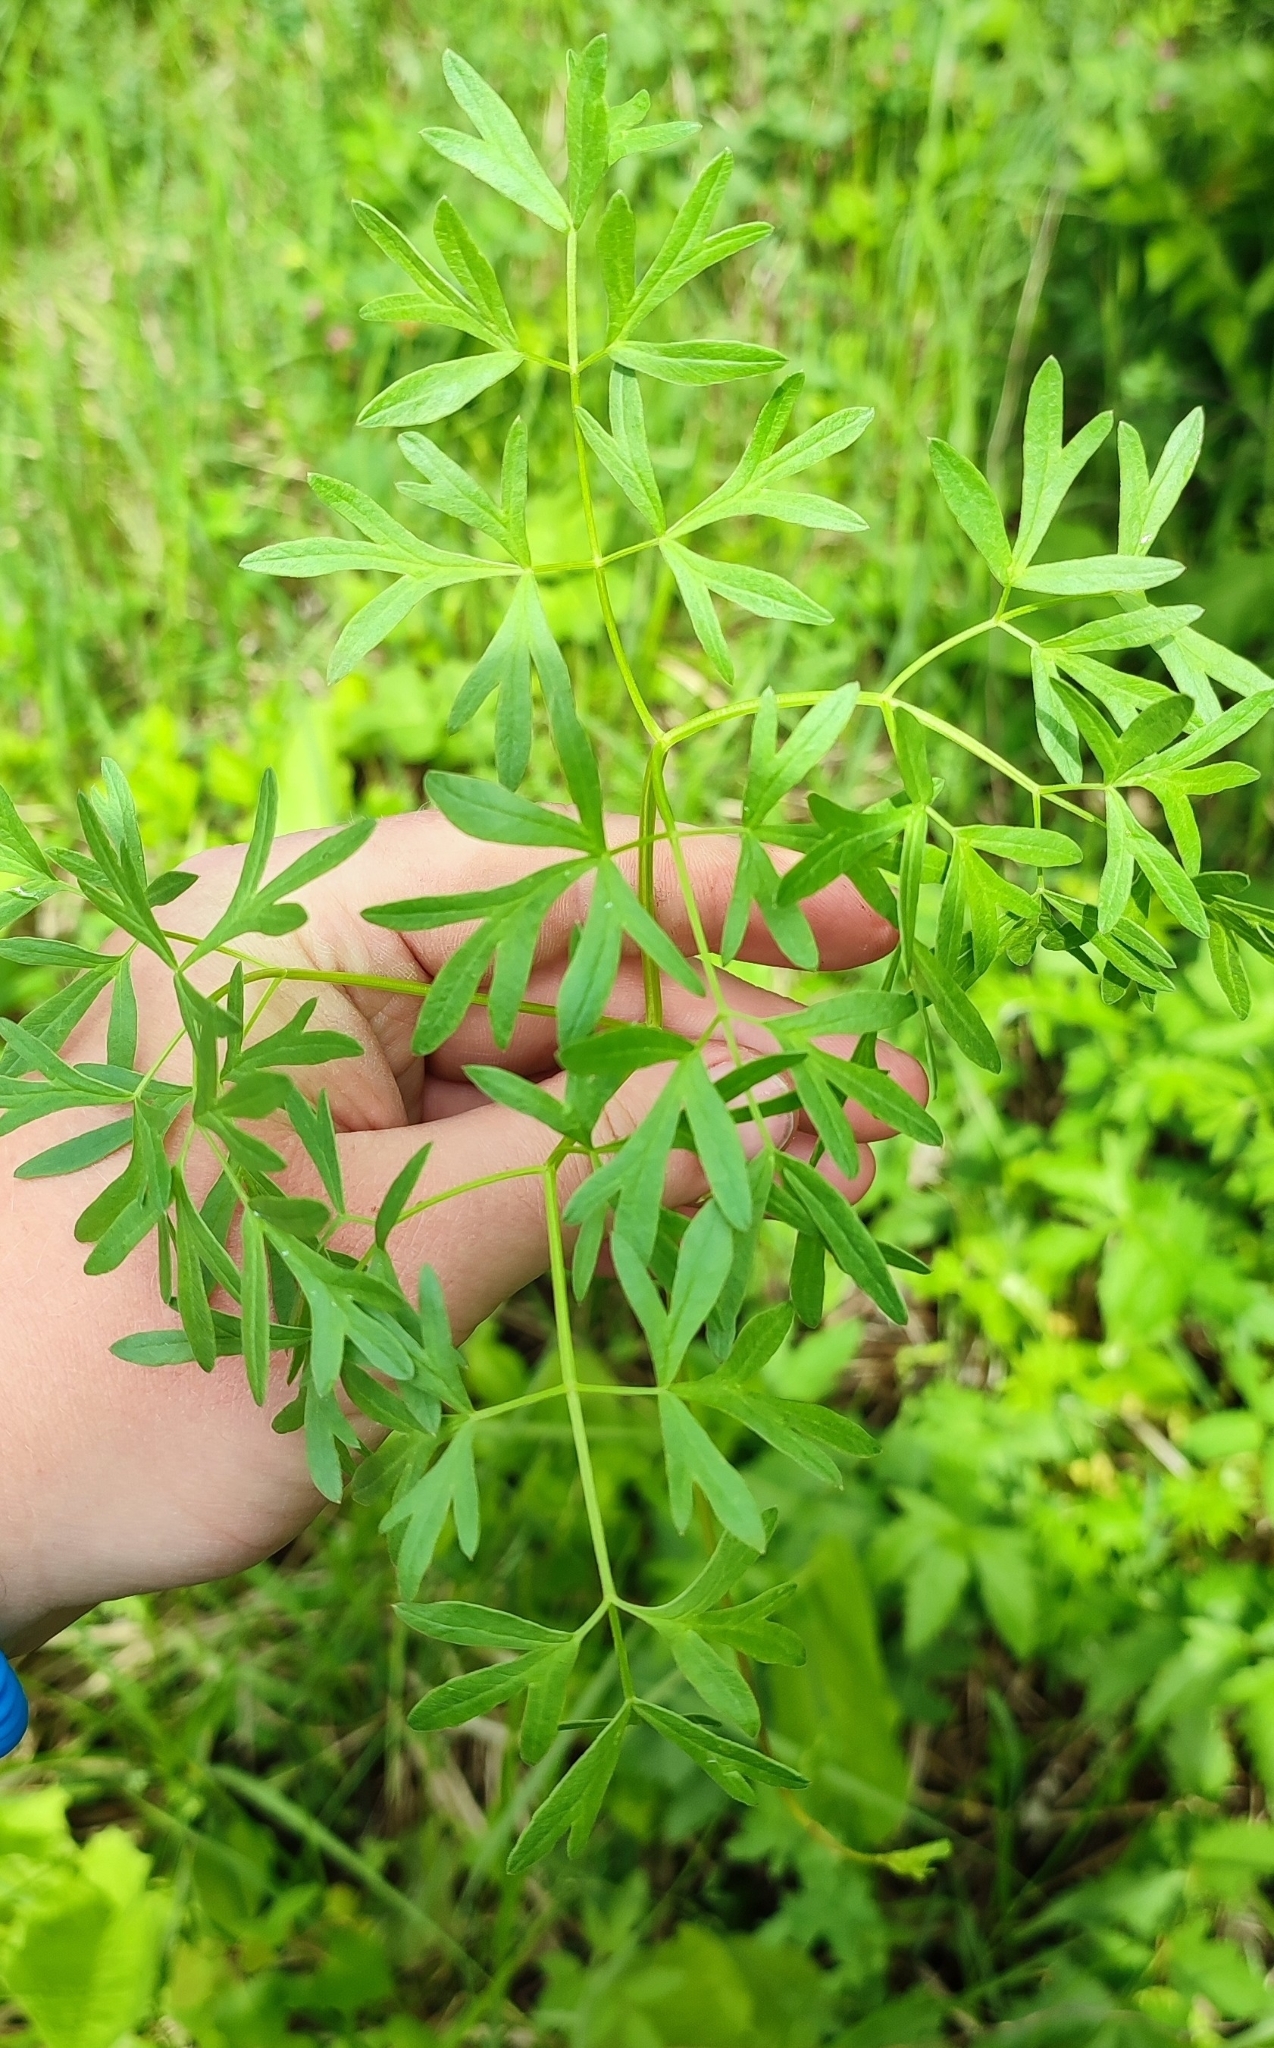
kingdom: Plantae
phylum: Tracheophyta
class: Magnoliopsida
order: Apiales
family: Apiaceae
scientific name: Apiaceae
